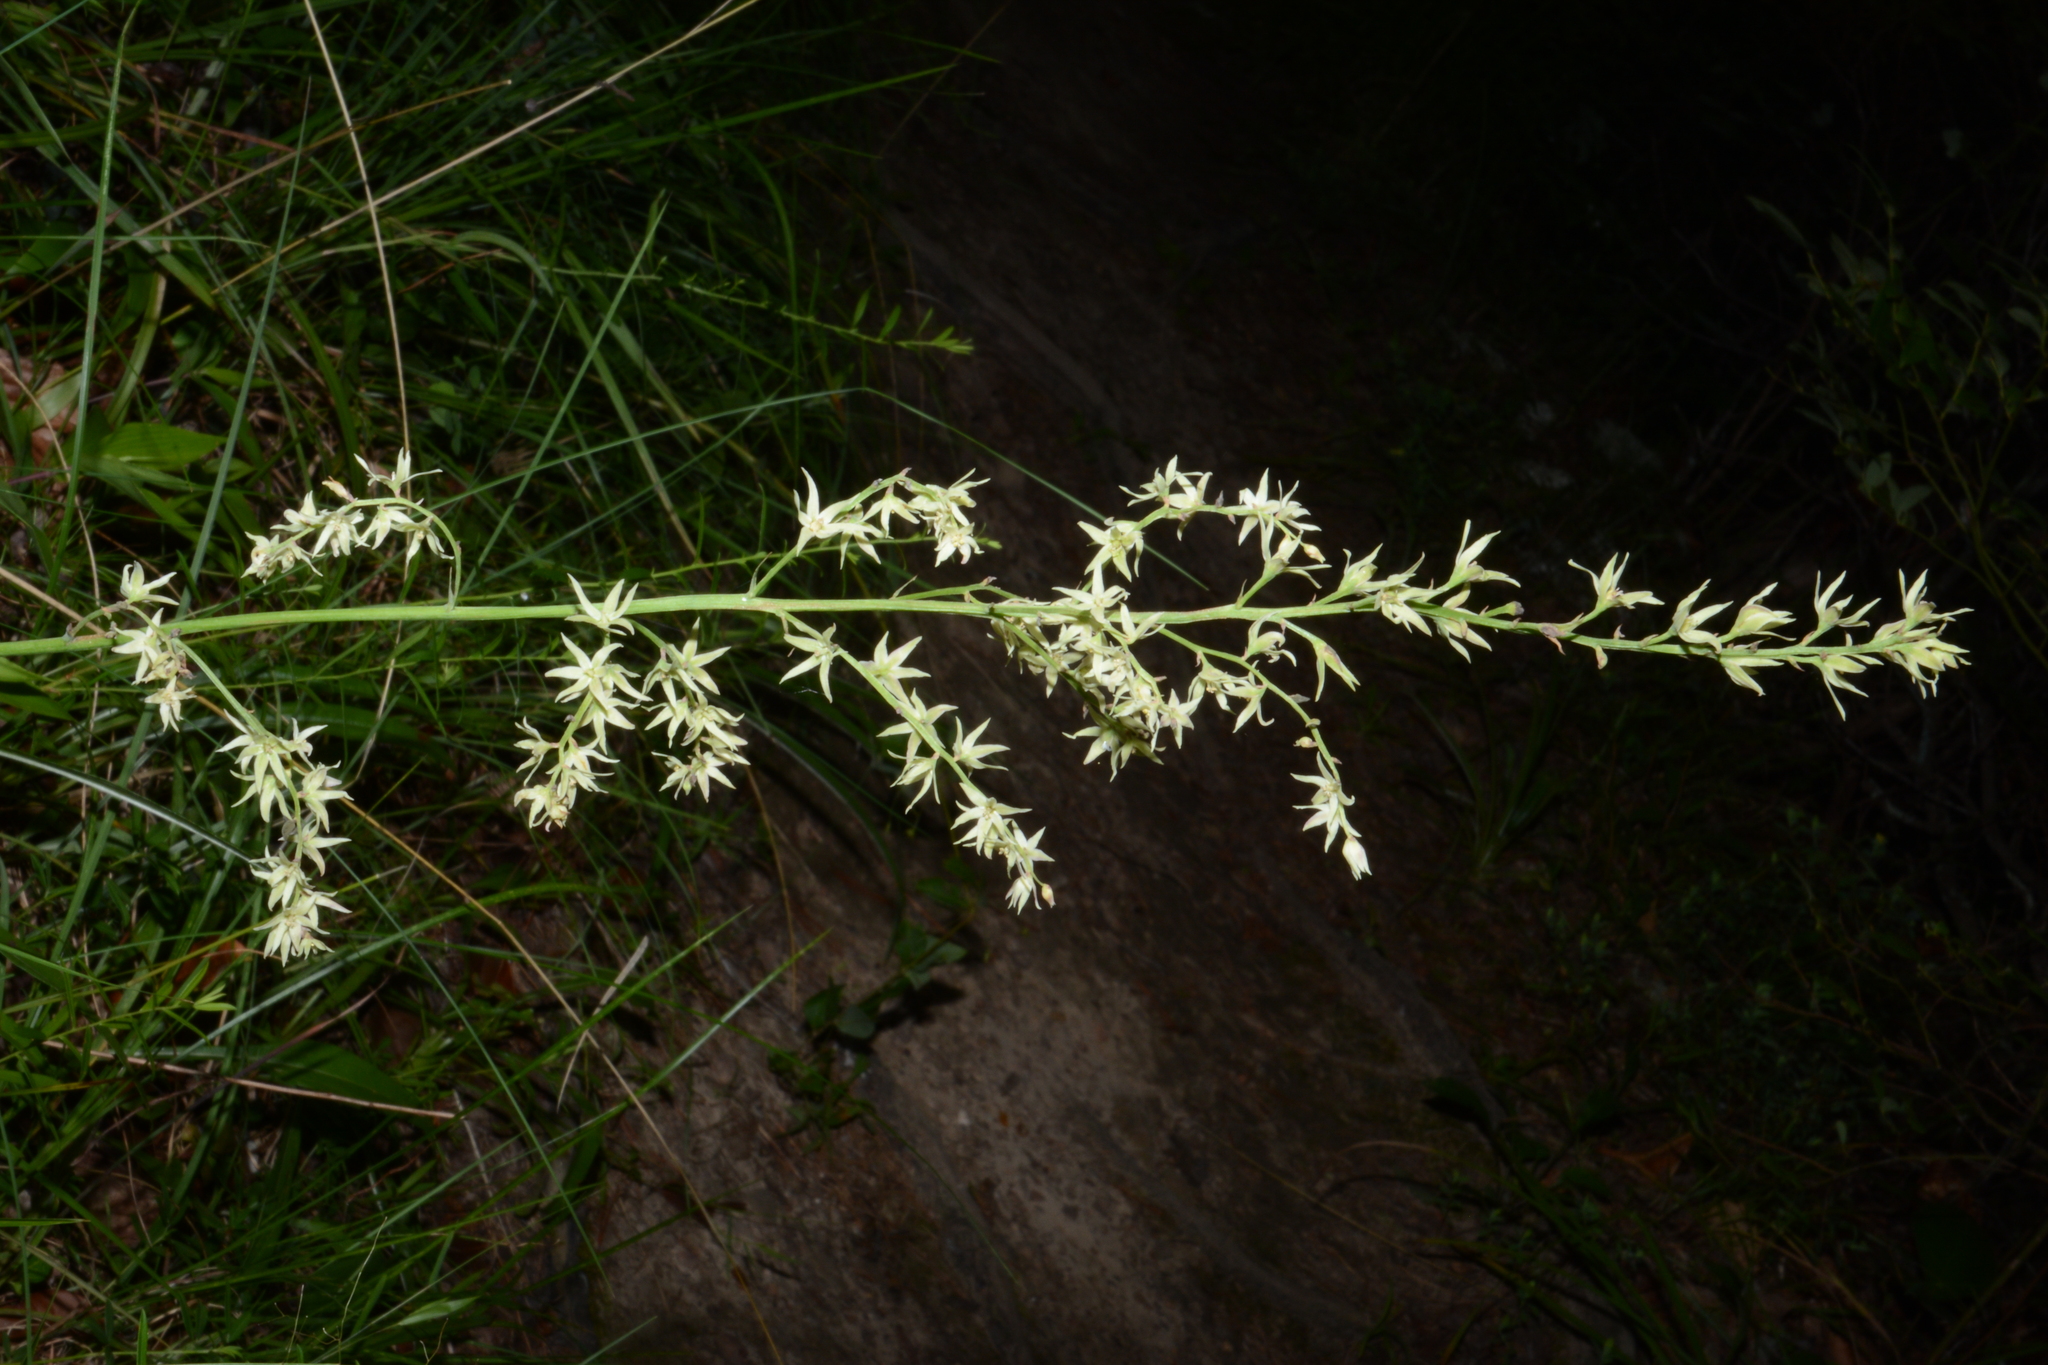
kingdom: Plantae
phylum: Tracheophyta
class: Liliopsida
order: Liliales
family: Melanthiaceae
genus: Stenanthium
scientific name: Stenanthium gramineum
